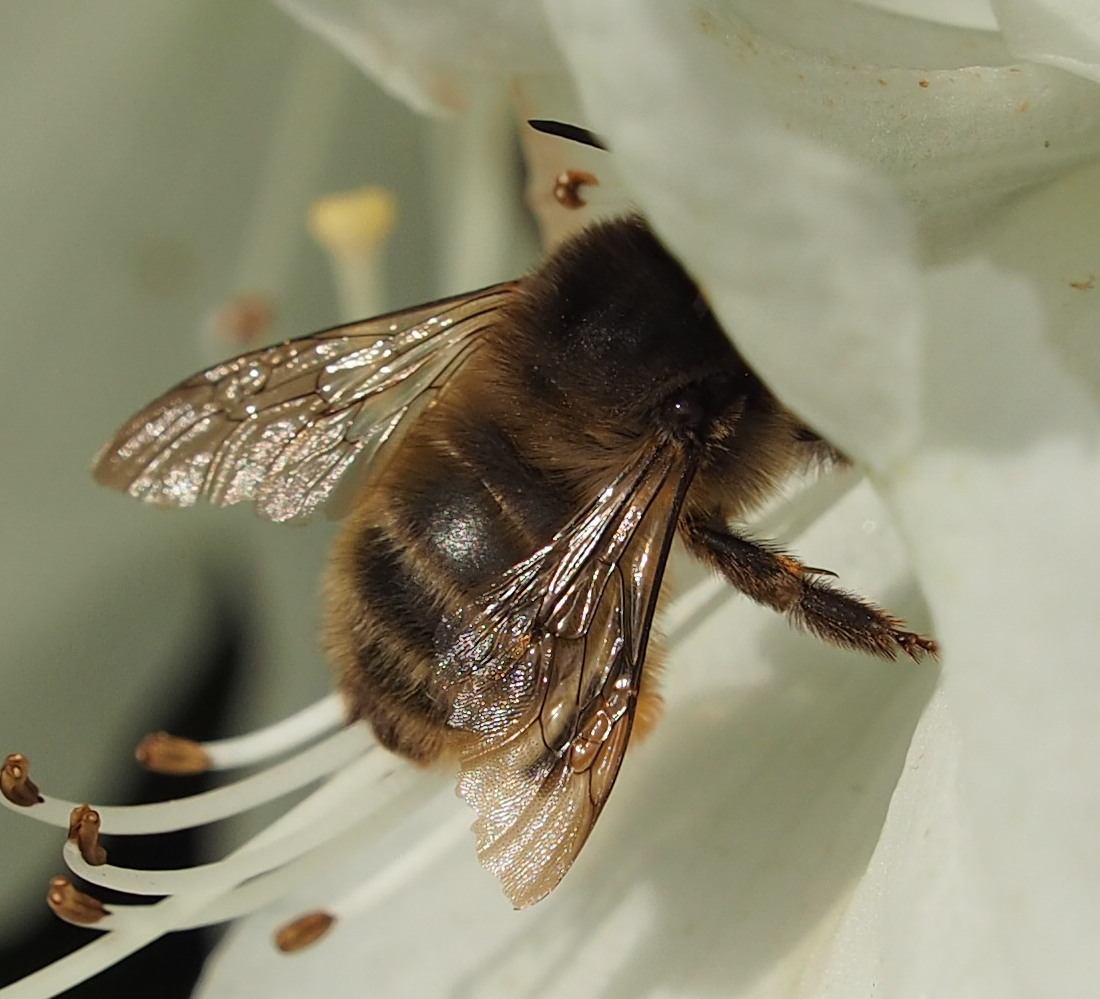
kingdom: Animalia
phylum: Arthropoda
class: Insecta
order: Hymenoptera
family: Apidae
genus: Anthophora
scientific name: Anthophora villosula
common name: Asian shaggy digger
